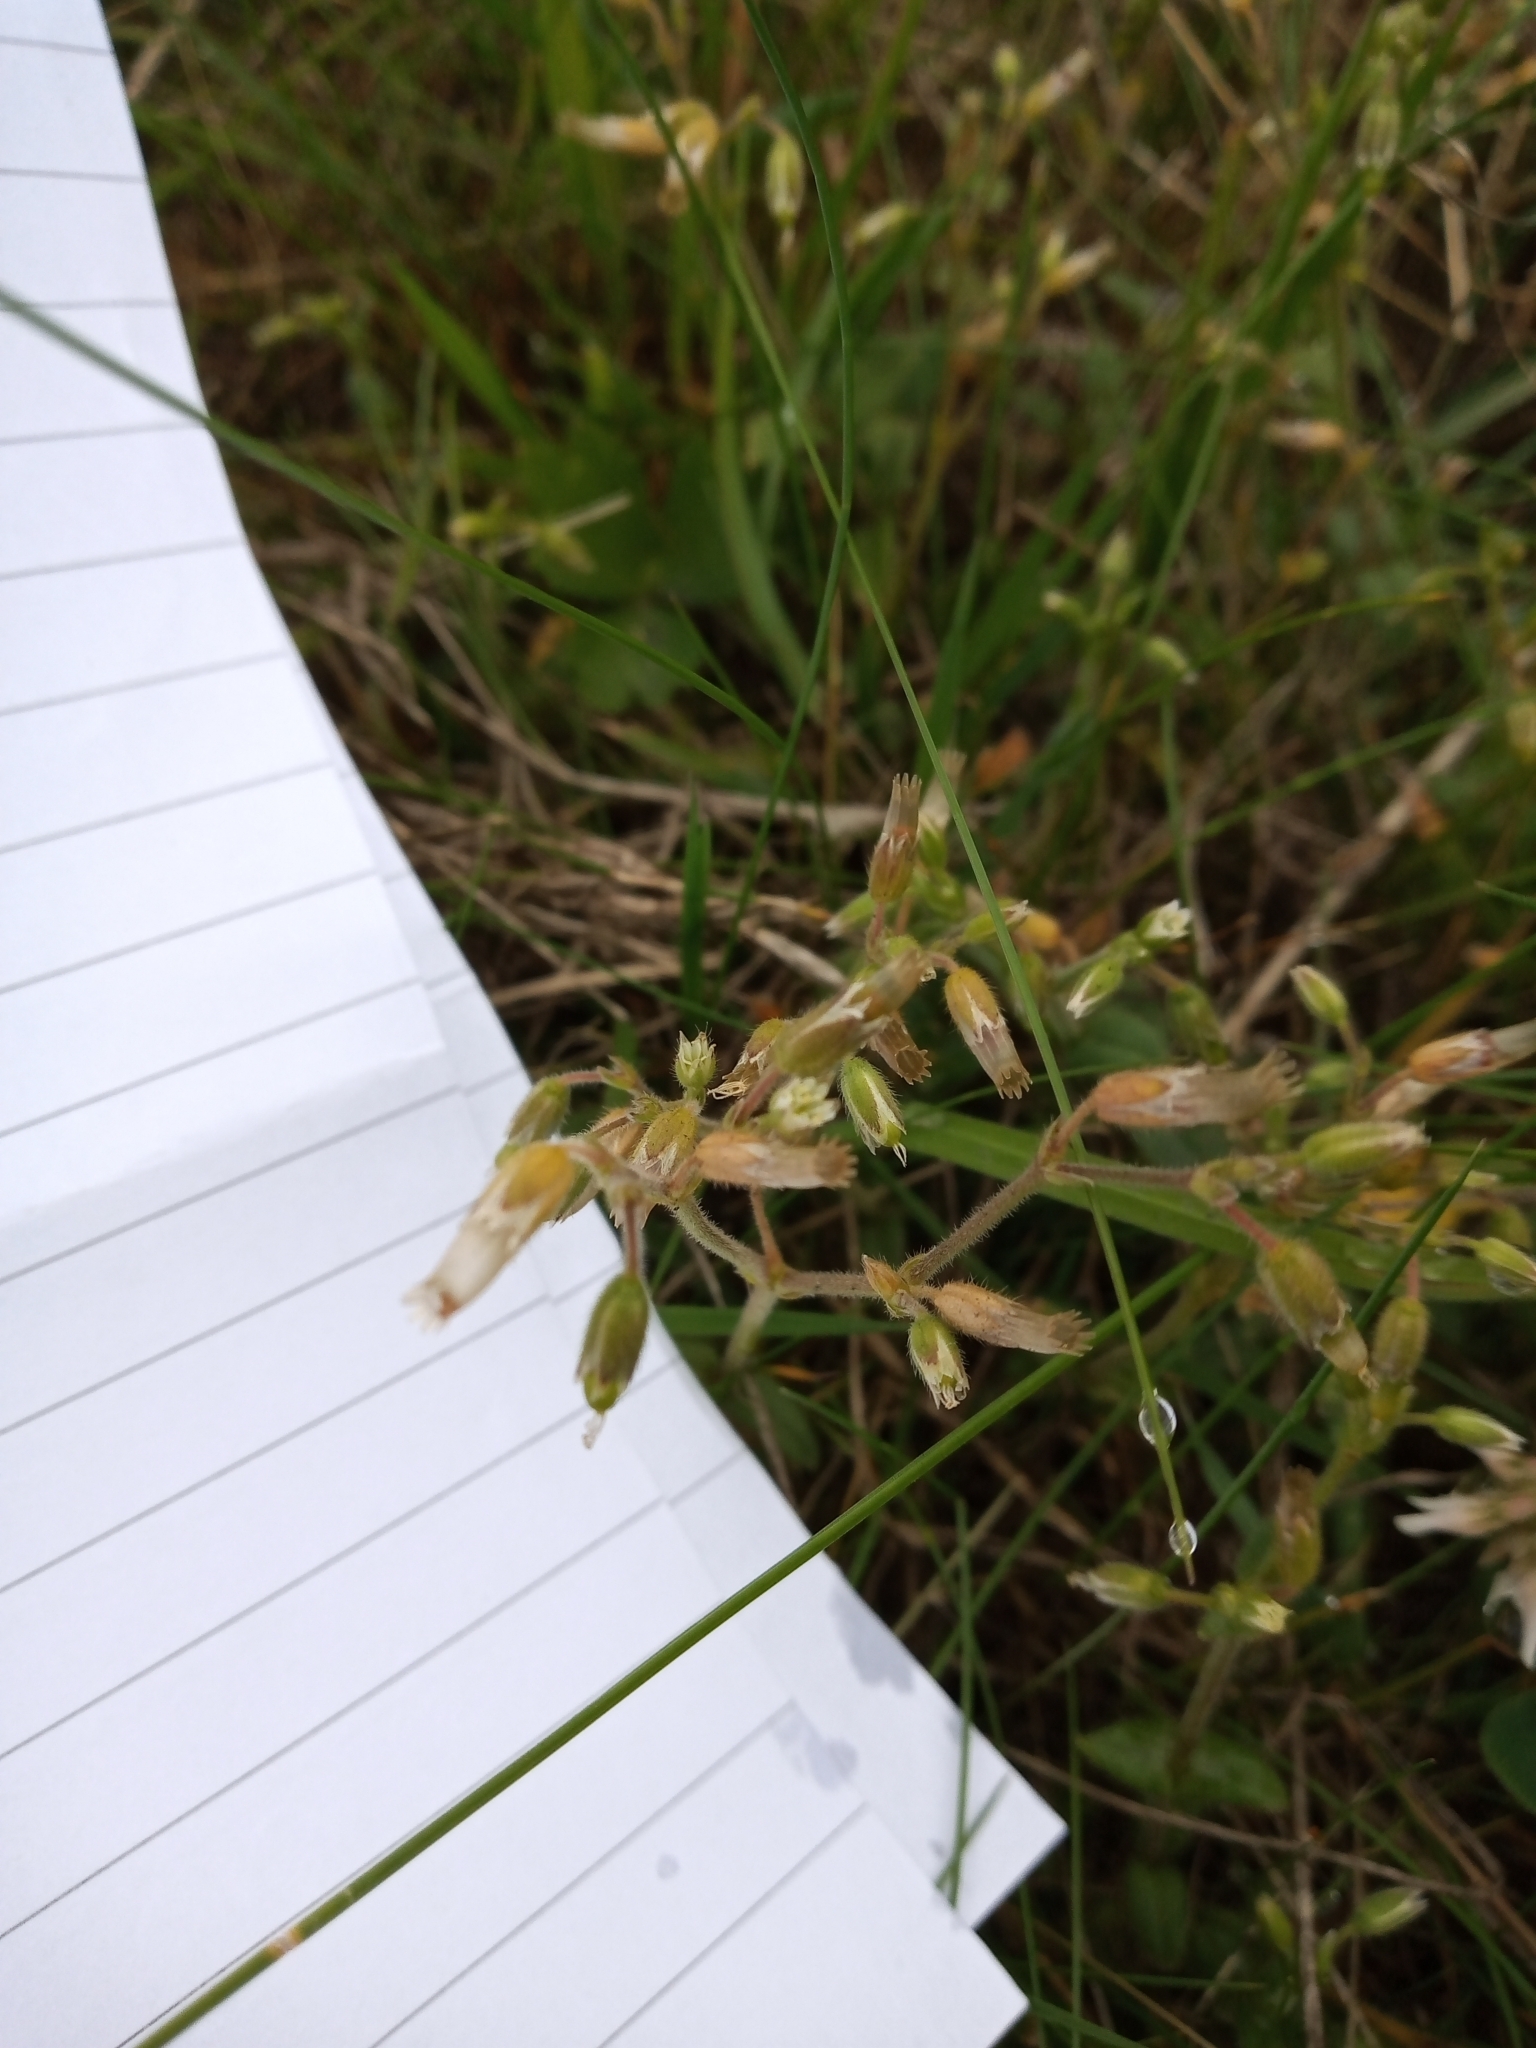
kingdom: Plantae
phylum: Tracheophyta
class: Magnoliopsida
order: Caryophyllales
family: Caryophyllaceae
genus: Cerastium
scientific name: Cerastium fontanum
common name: Common mouse-ear
